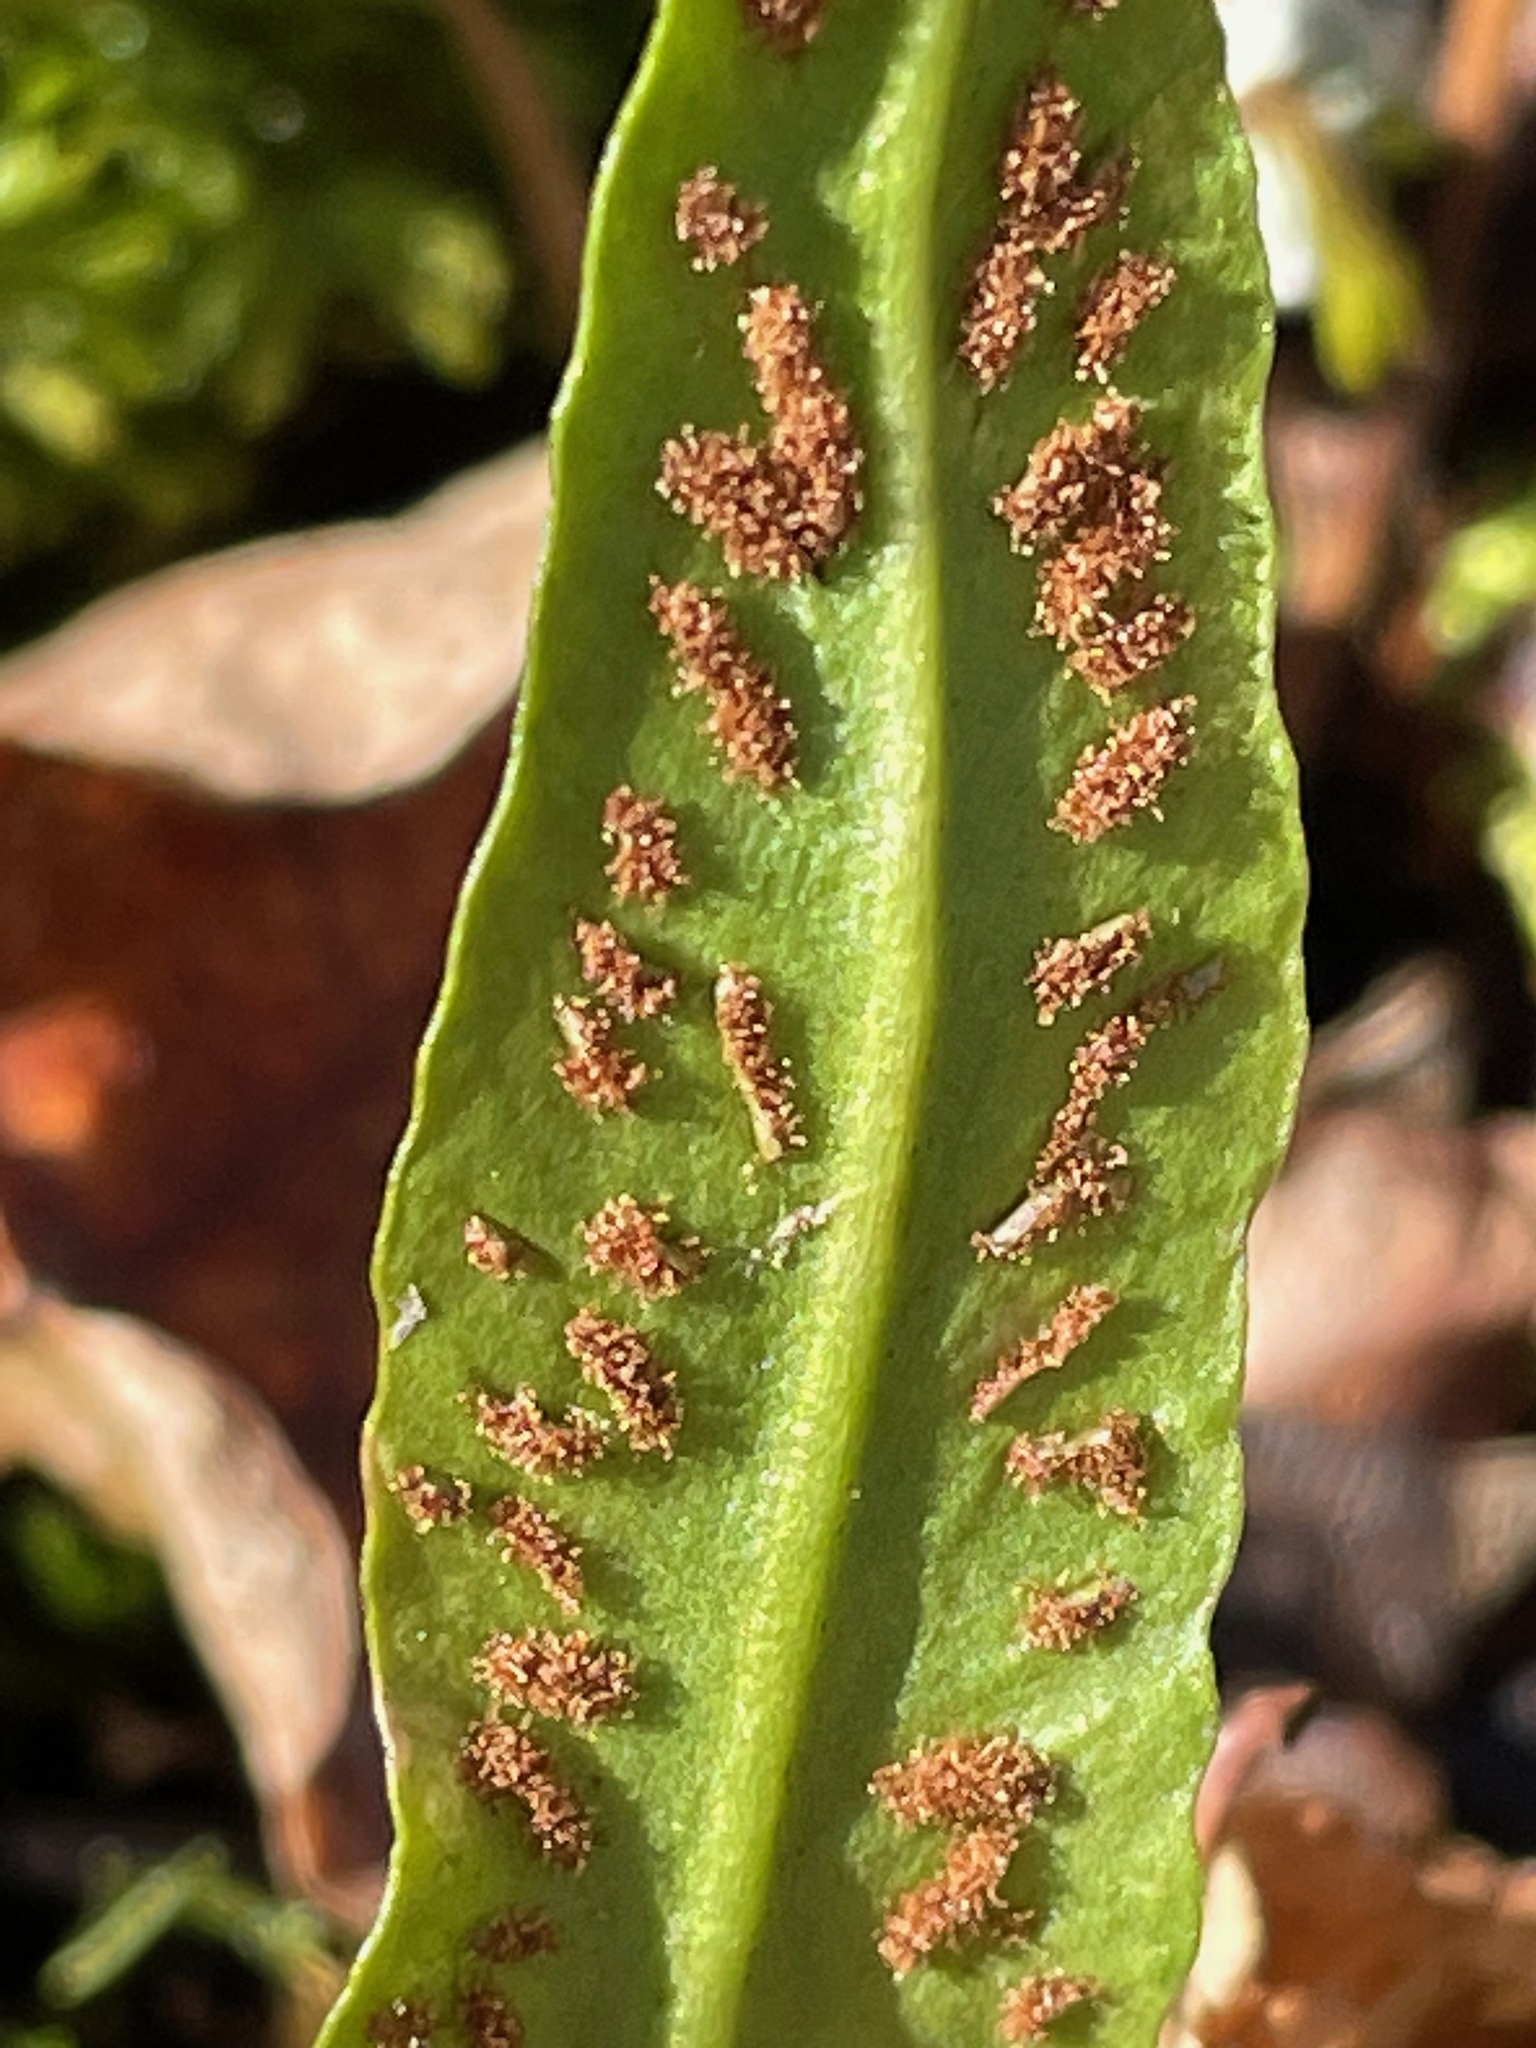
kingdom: Plantae
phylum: Tracheophyta
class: Polypodiopsida
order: Polypodiales
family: Aspleniaceae
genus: Asplenium
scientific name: Asplenium rhizophyllum
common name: Walking fern
